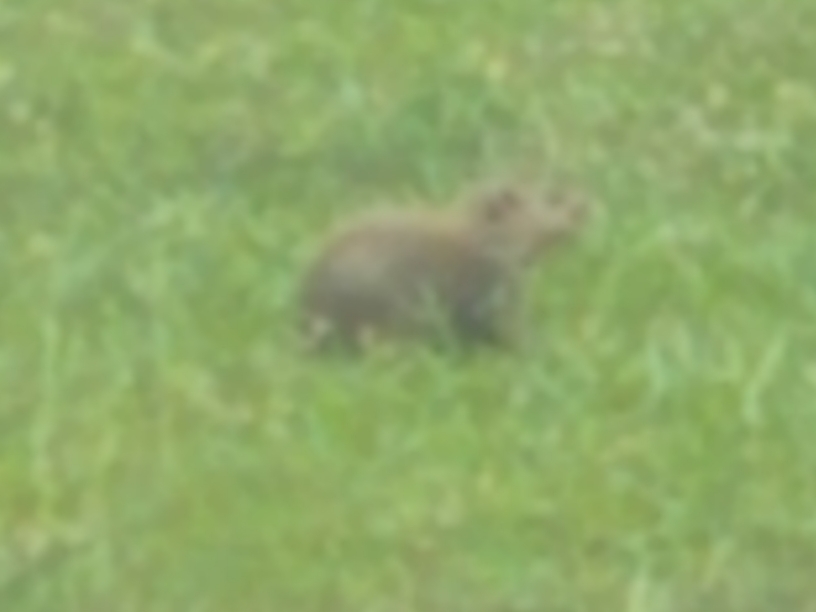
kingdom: Animalia
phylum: Chordata
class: Mammalia
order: Rodentia
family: Sciuridae
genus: Marmota
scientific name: Marmota monax
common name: Groundhog
